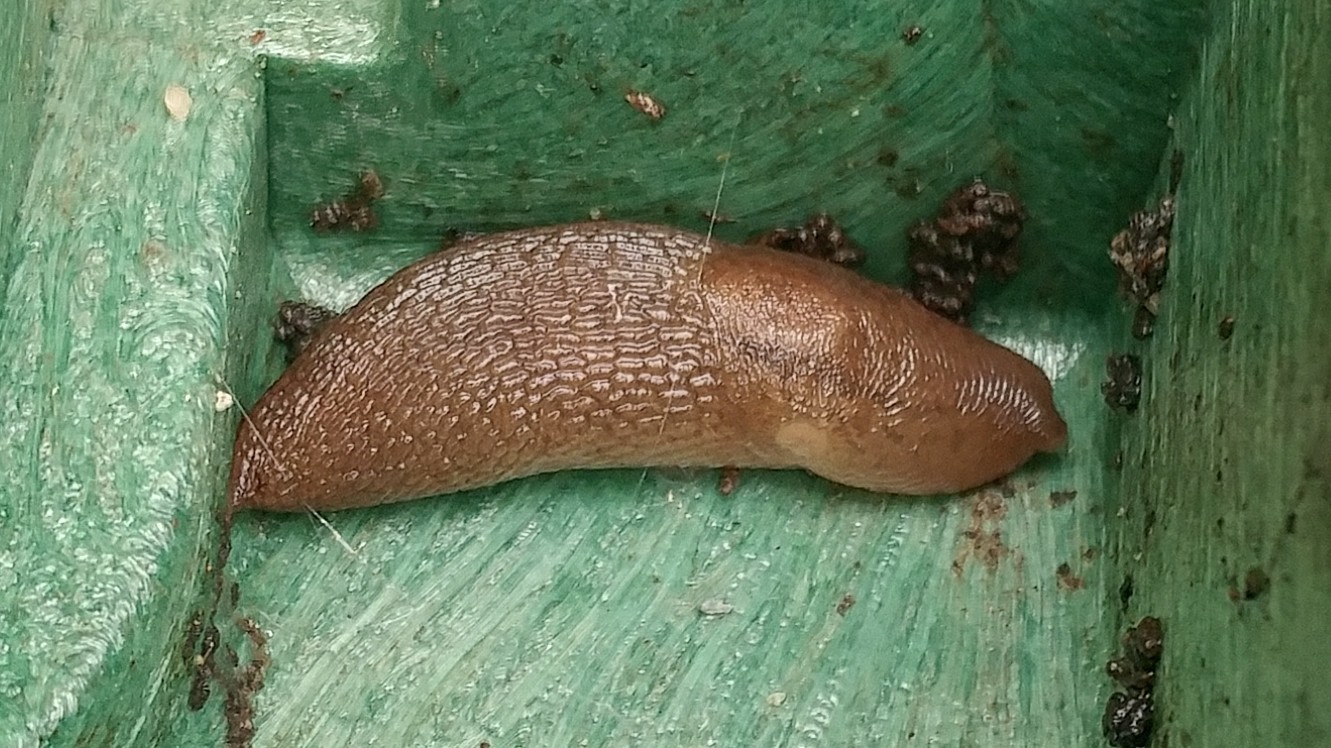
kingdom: Animalia
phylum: Mollusca
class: Gastropoda
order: Stylommatophora
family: Limacidae
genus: Ambigolimax
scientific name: Ambigolimax
